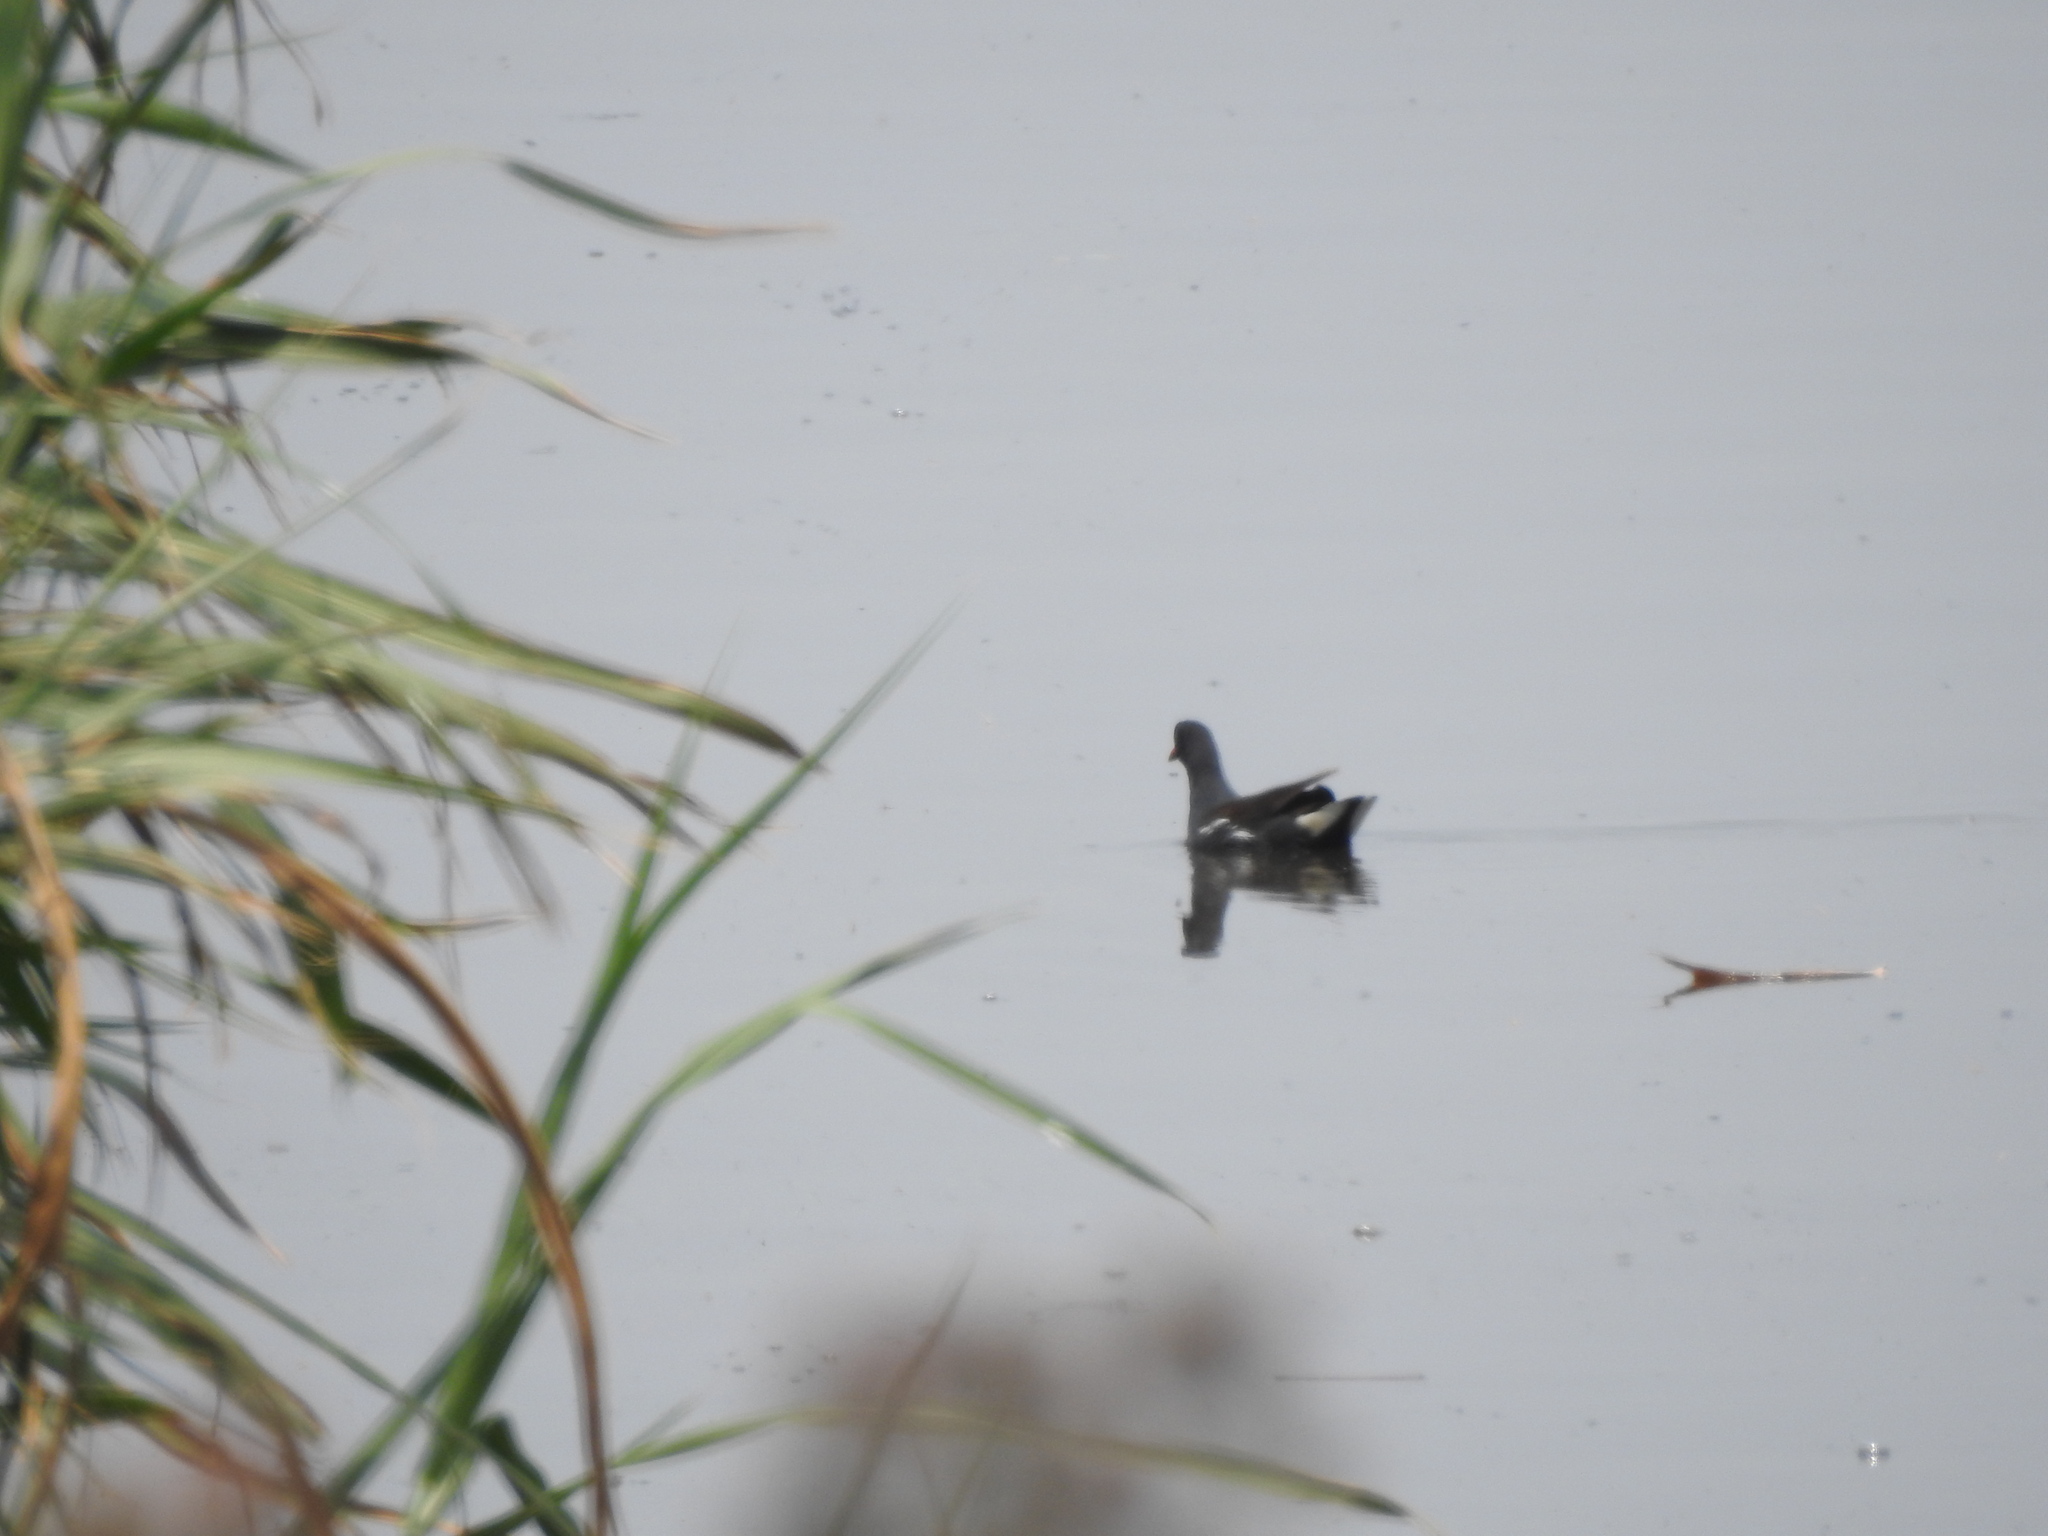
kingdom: Animalia
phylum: Chordata
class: Aves
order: Gruiformes
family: Rallidae
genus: Gallinula
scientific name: Gallinula chloropus
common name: Common moorhen
